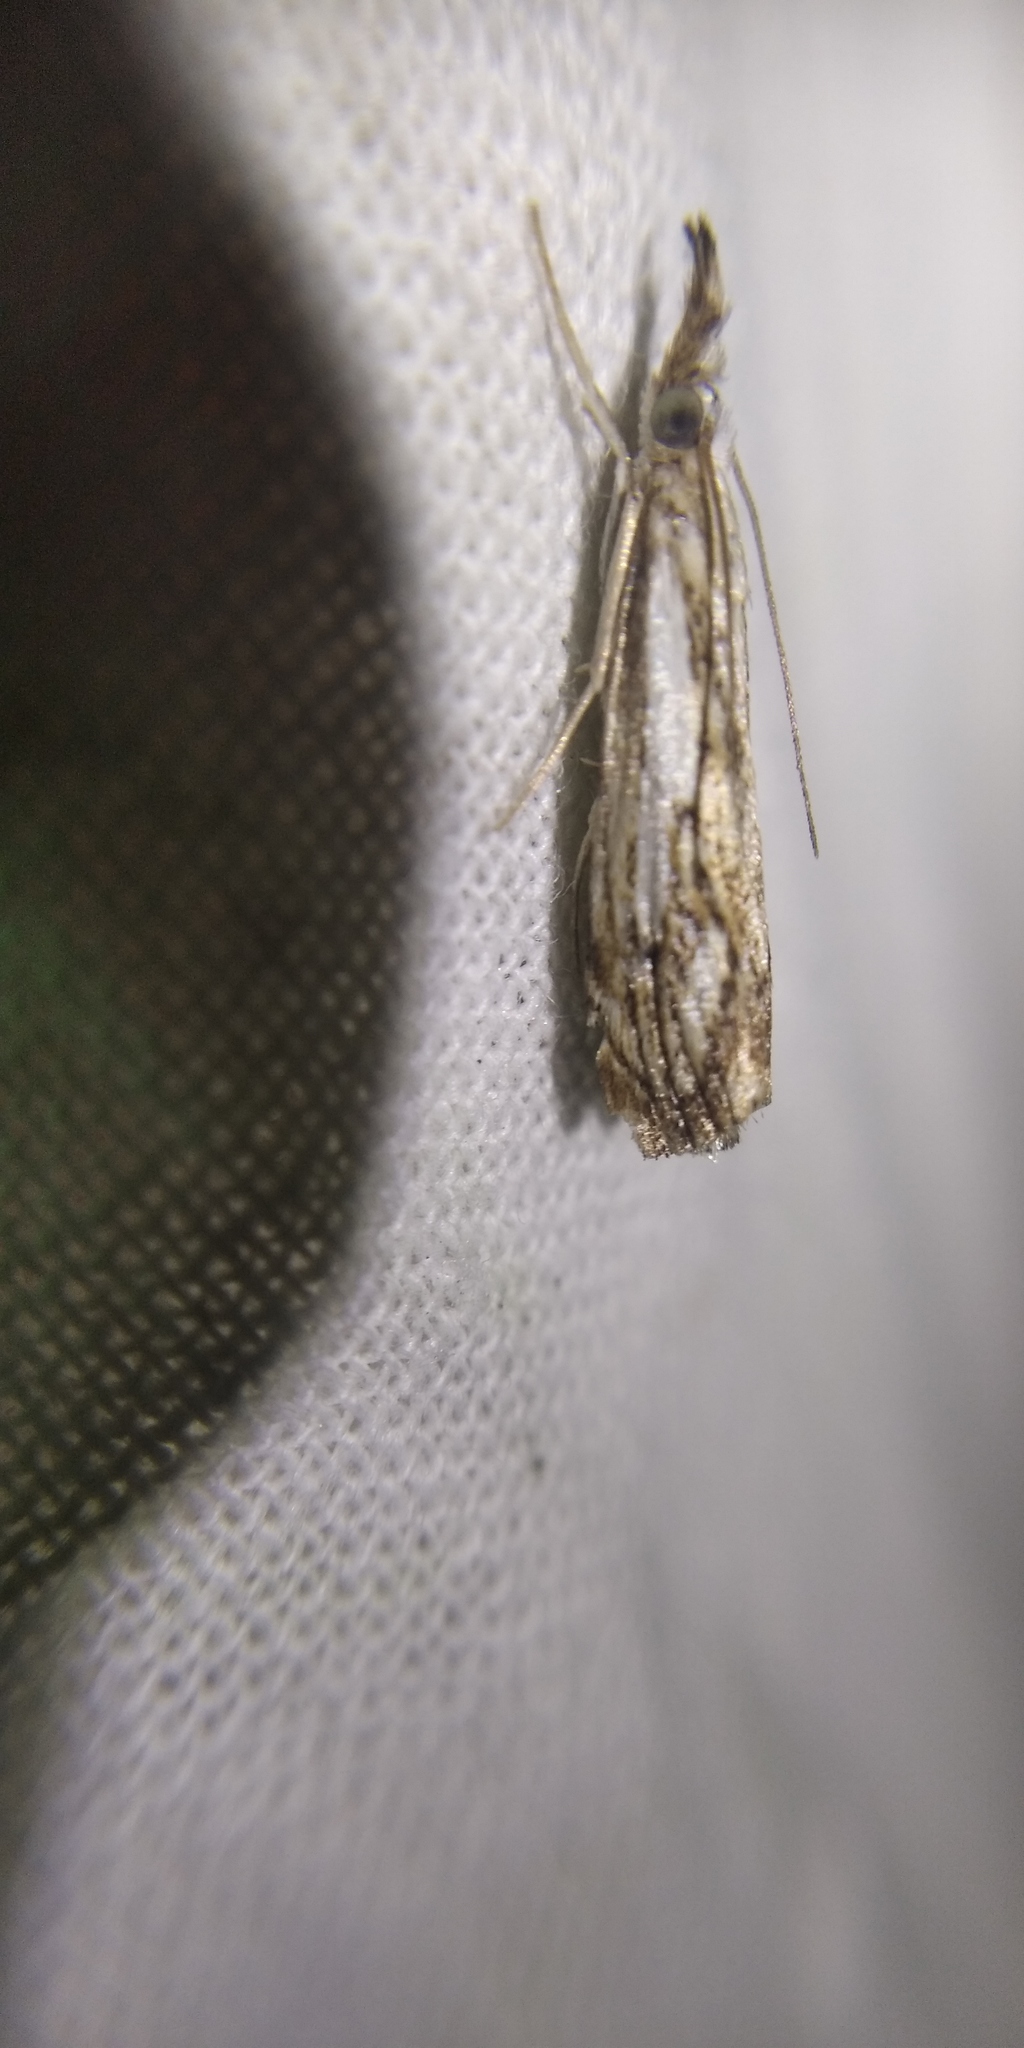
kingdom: Animalia
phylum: Arthropoda
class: Insecta
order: Lepidoptera
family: Crambidae
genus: Catoptria
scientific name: Catoptria falsella
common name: Chequered grass-veneer
